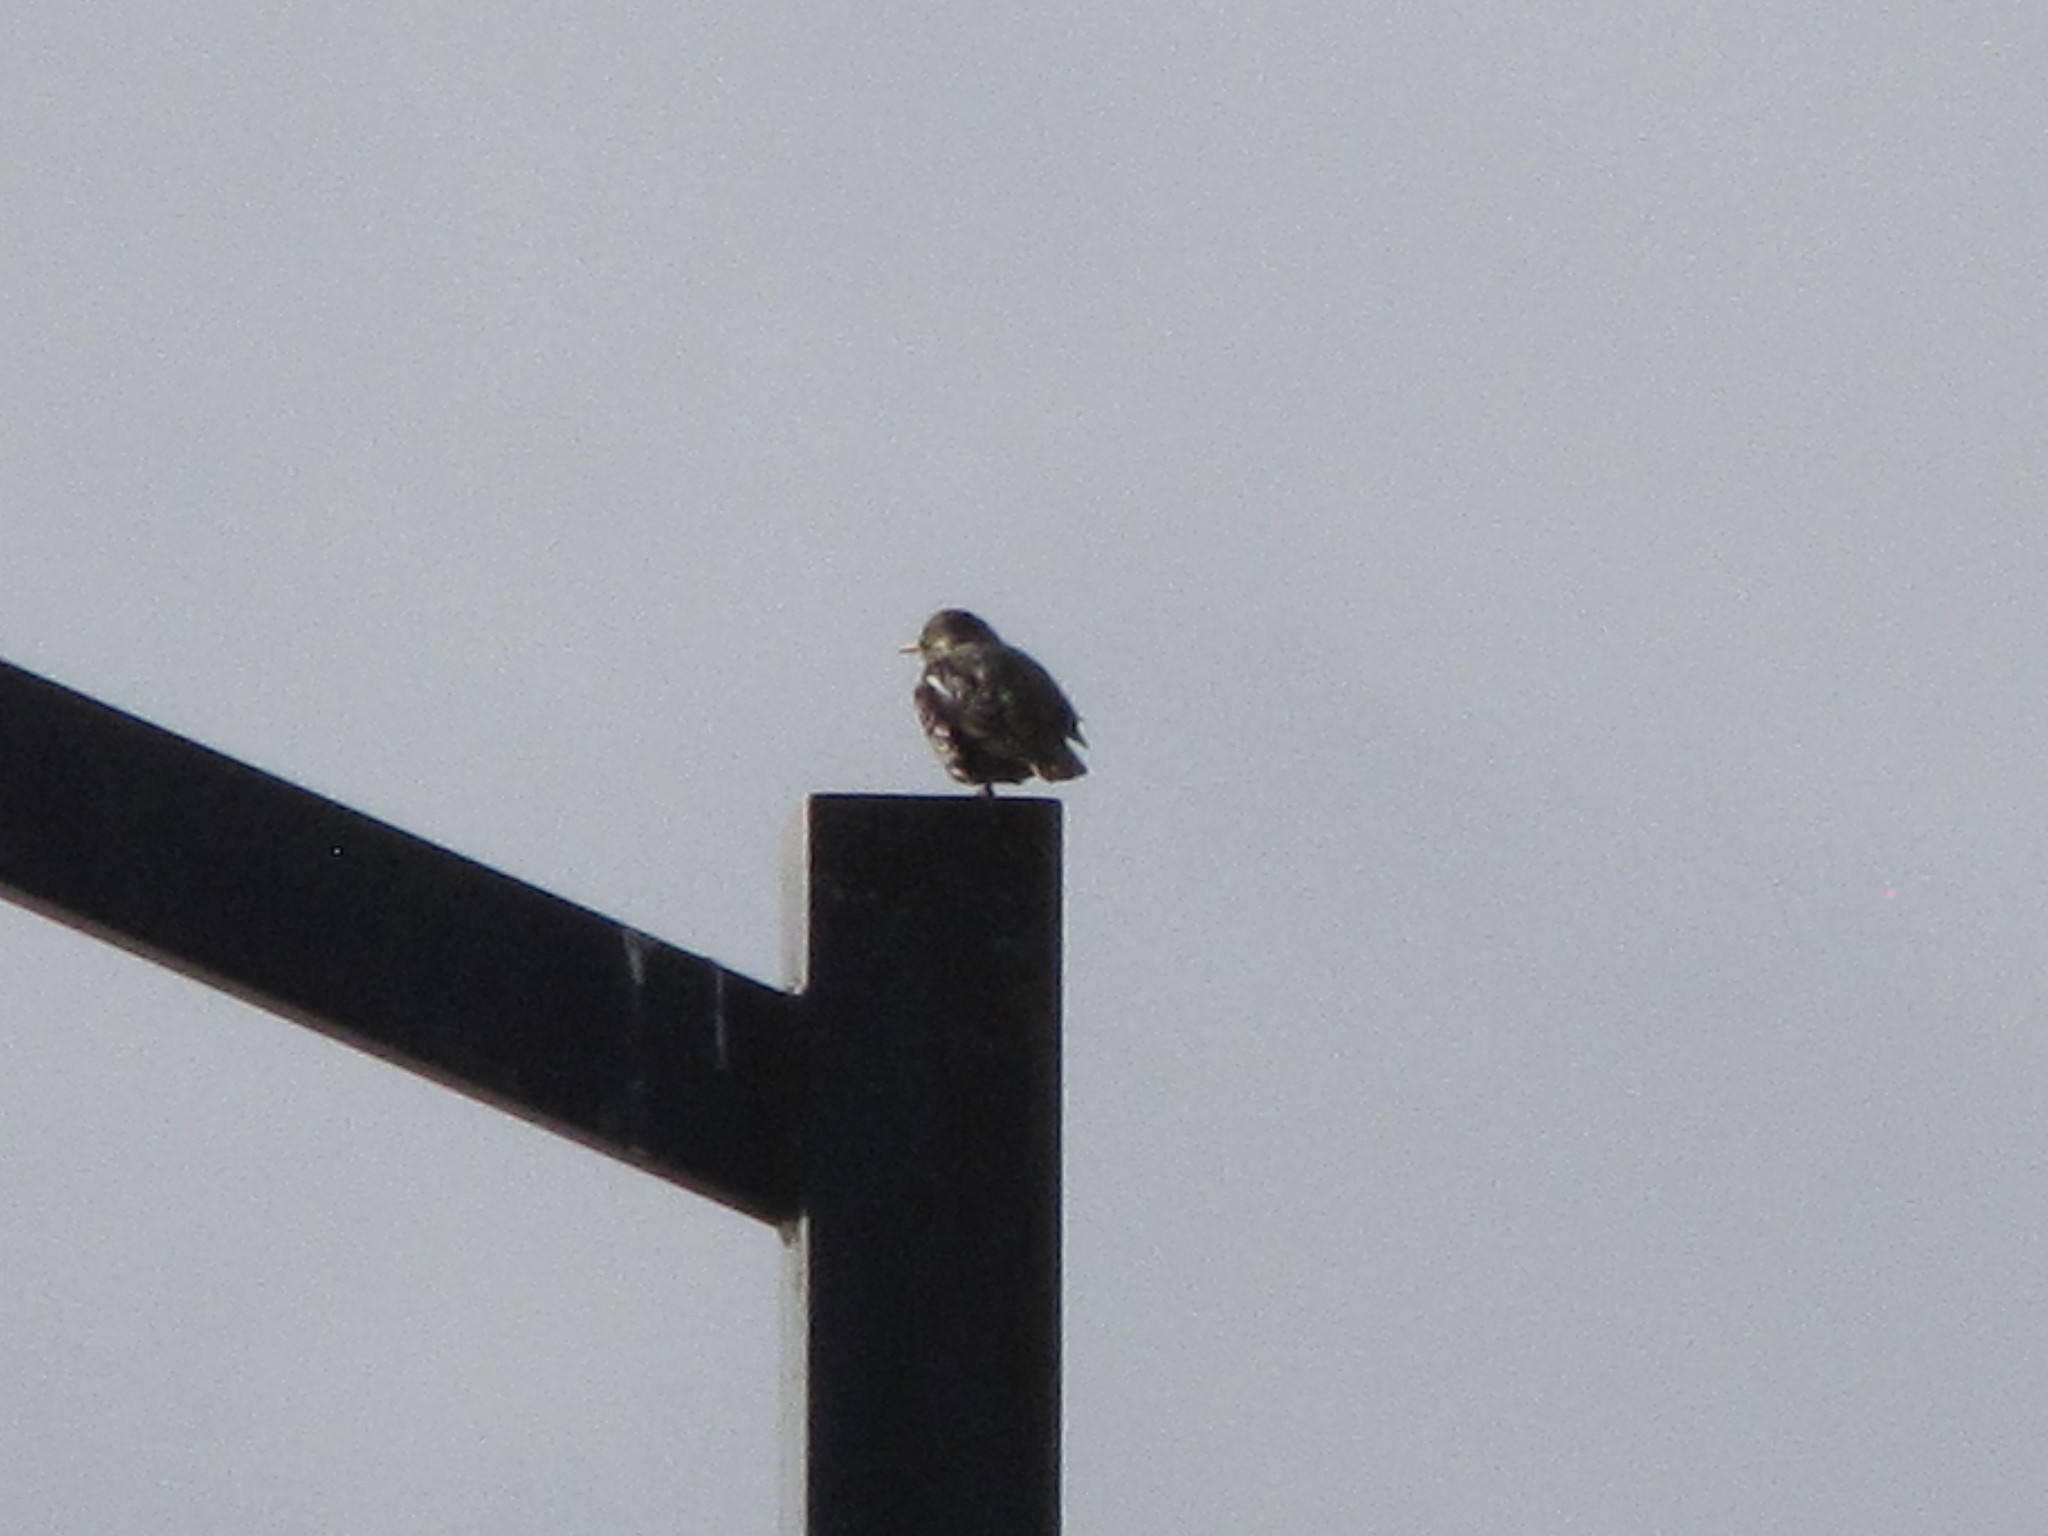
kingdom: Animalia
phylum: Chordata
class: Aves
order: Passeriformes
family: Sturnidae
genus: Sturnus
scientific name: Sturnus vulgaris
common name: Common starling
